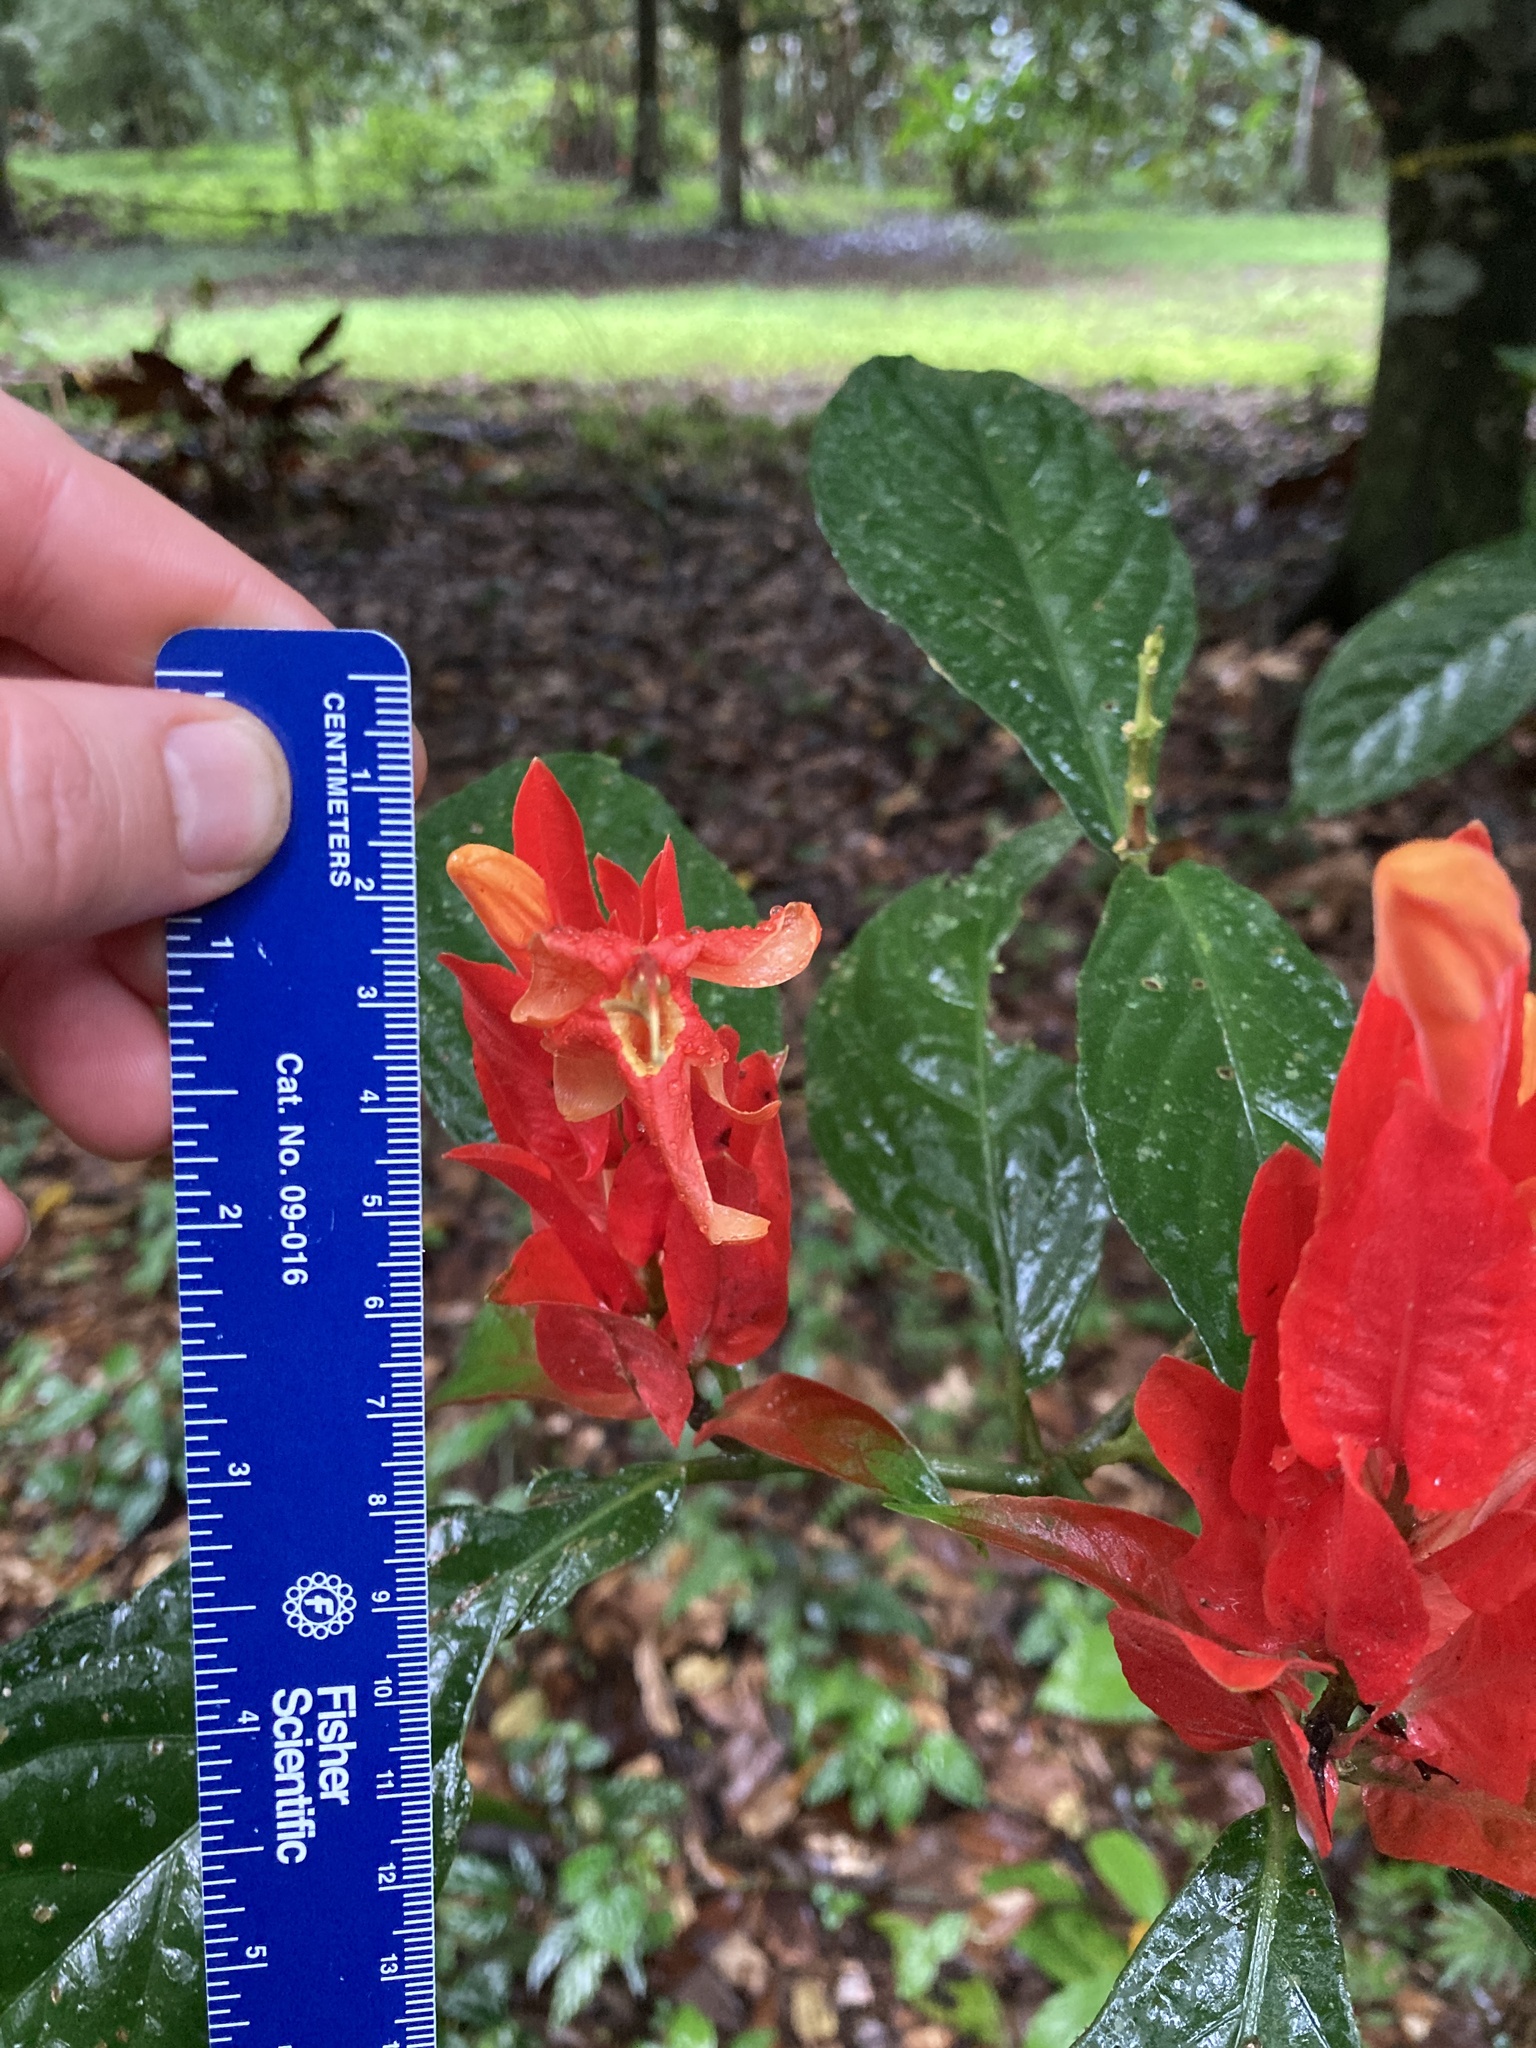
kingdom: Plantae
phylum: Tracheophyta
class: Magnoliopsida
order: Lamiales
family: Acanthaceae
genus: Ruellia
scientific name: Ruellia chartacea
